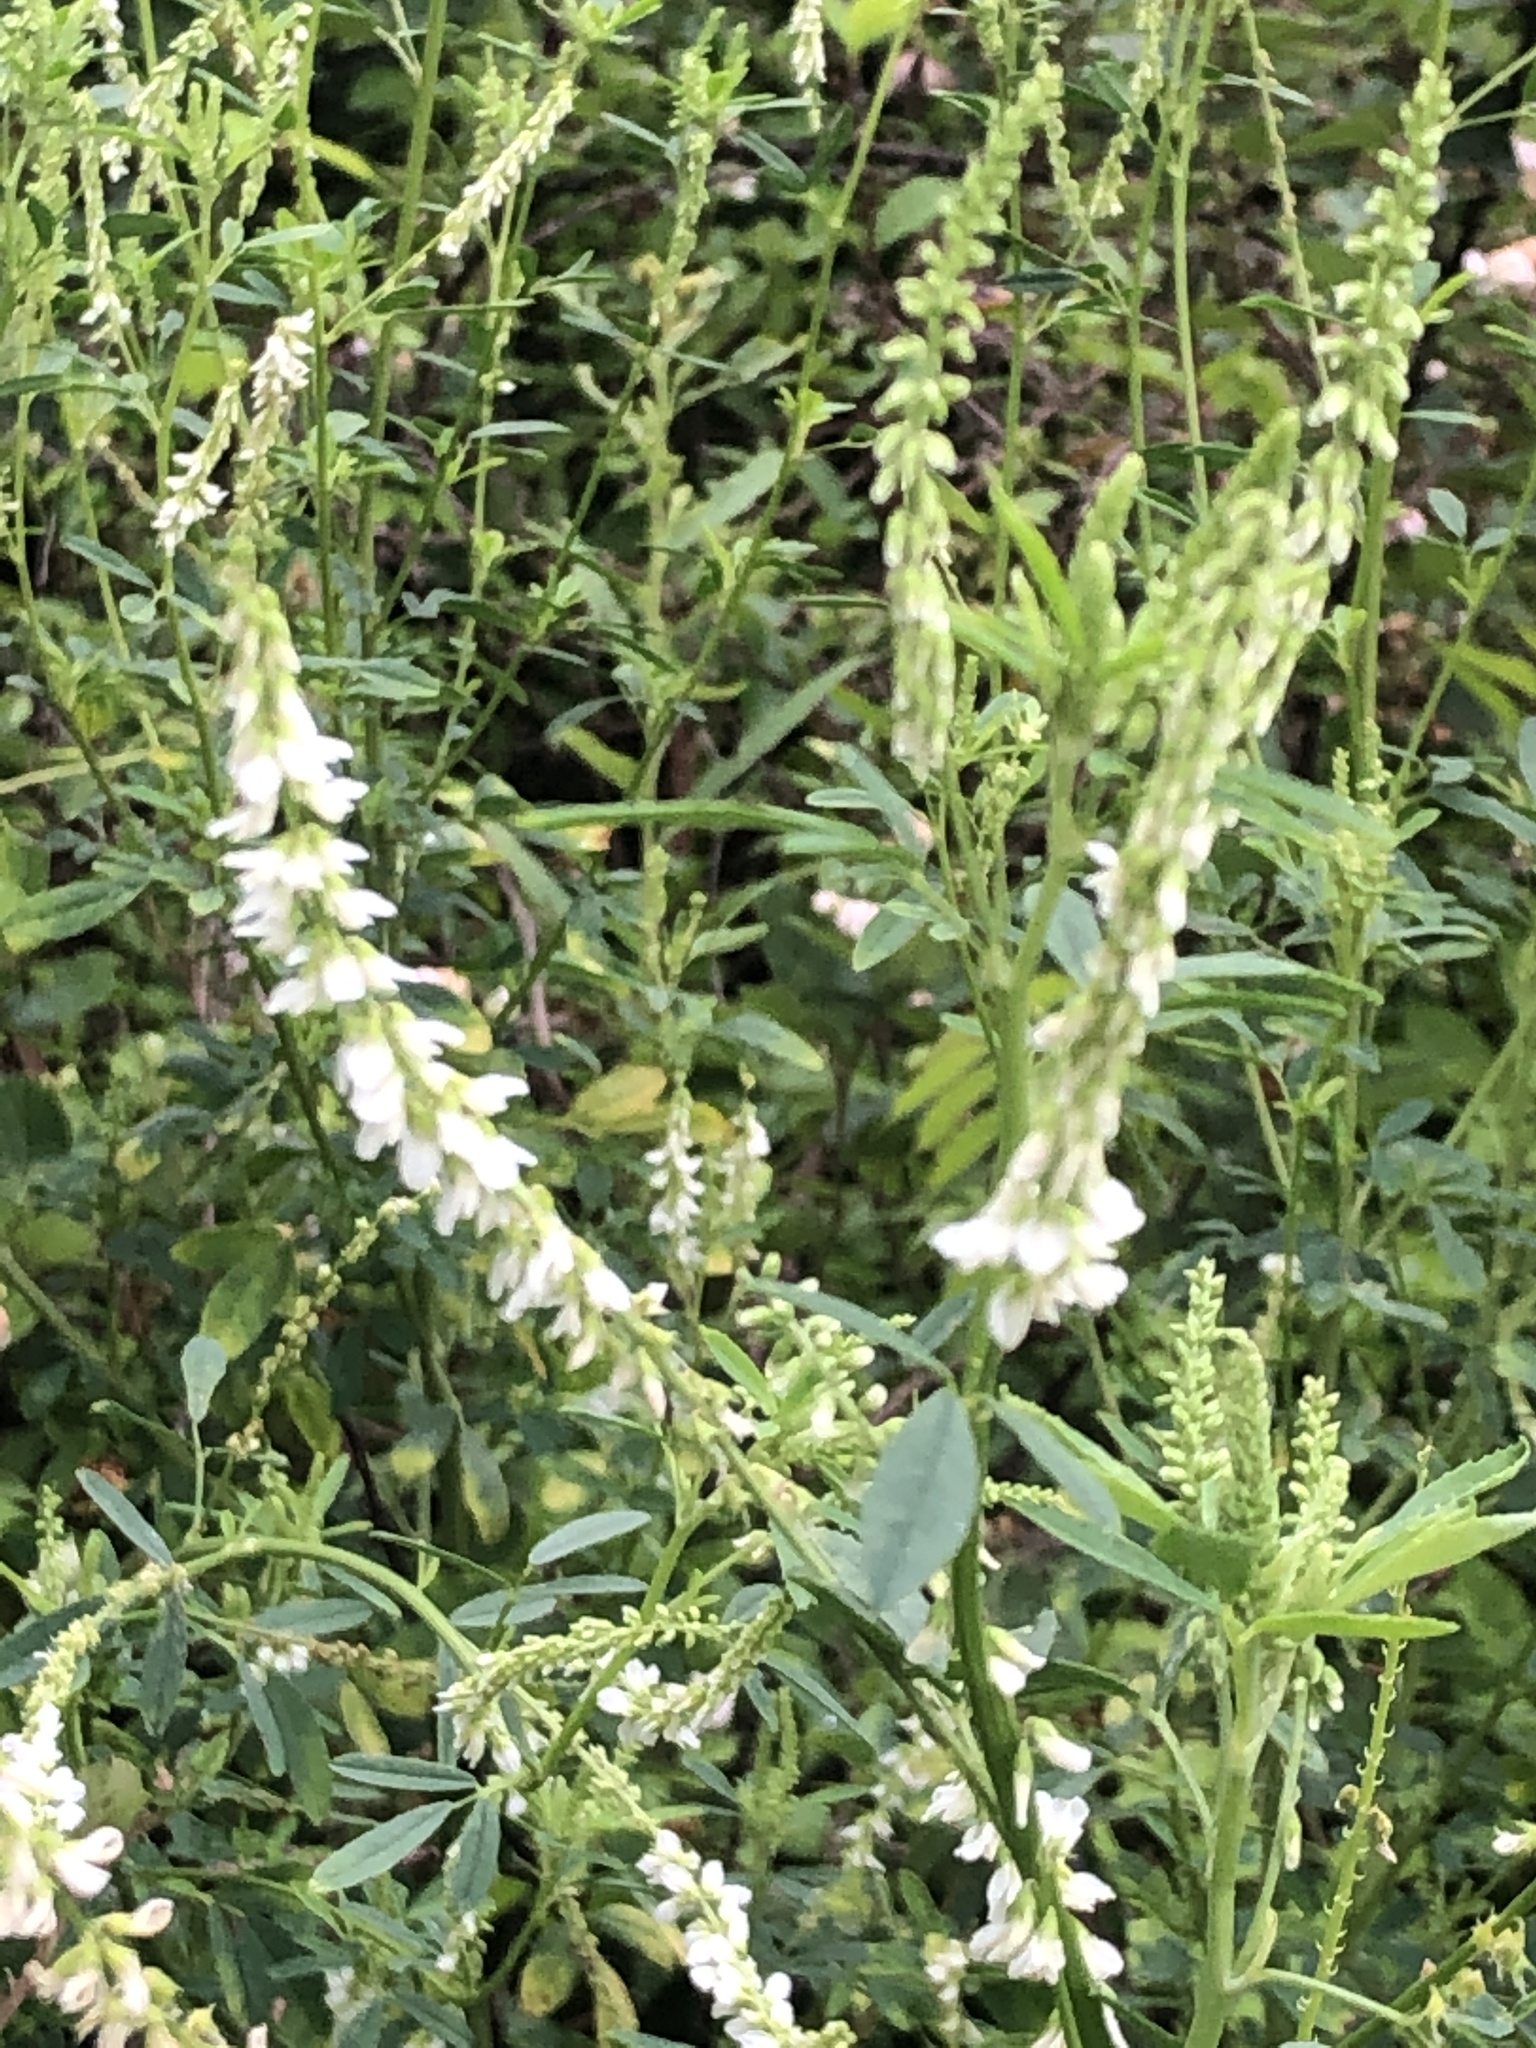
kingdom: Plantae
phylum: Tracheophyta
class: Magnoliopsida
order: Fabales
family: Fabaceae
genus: Melilotus
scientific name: Melilotus albus
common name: White melilot
